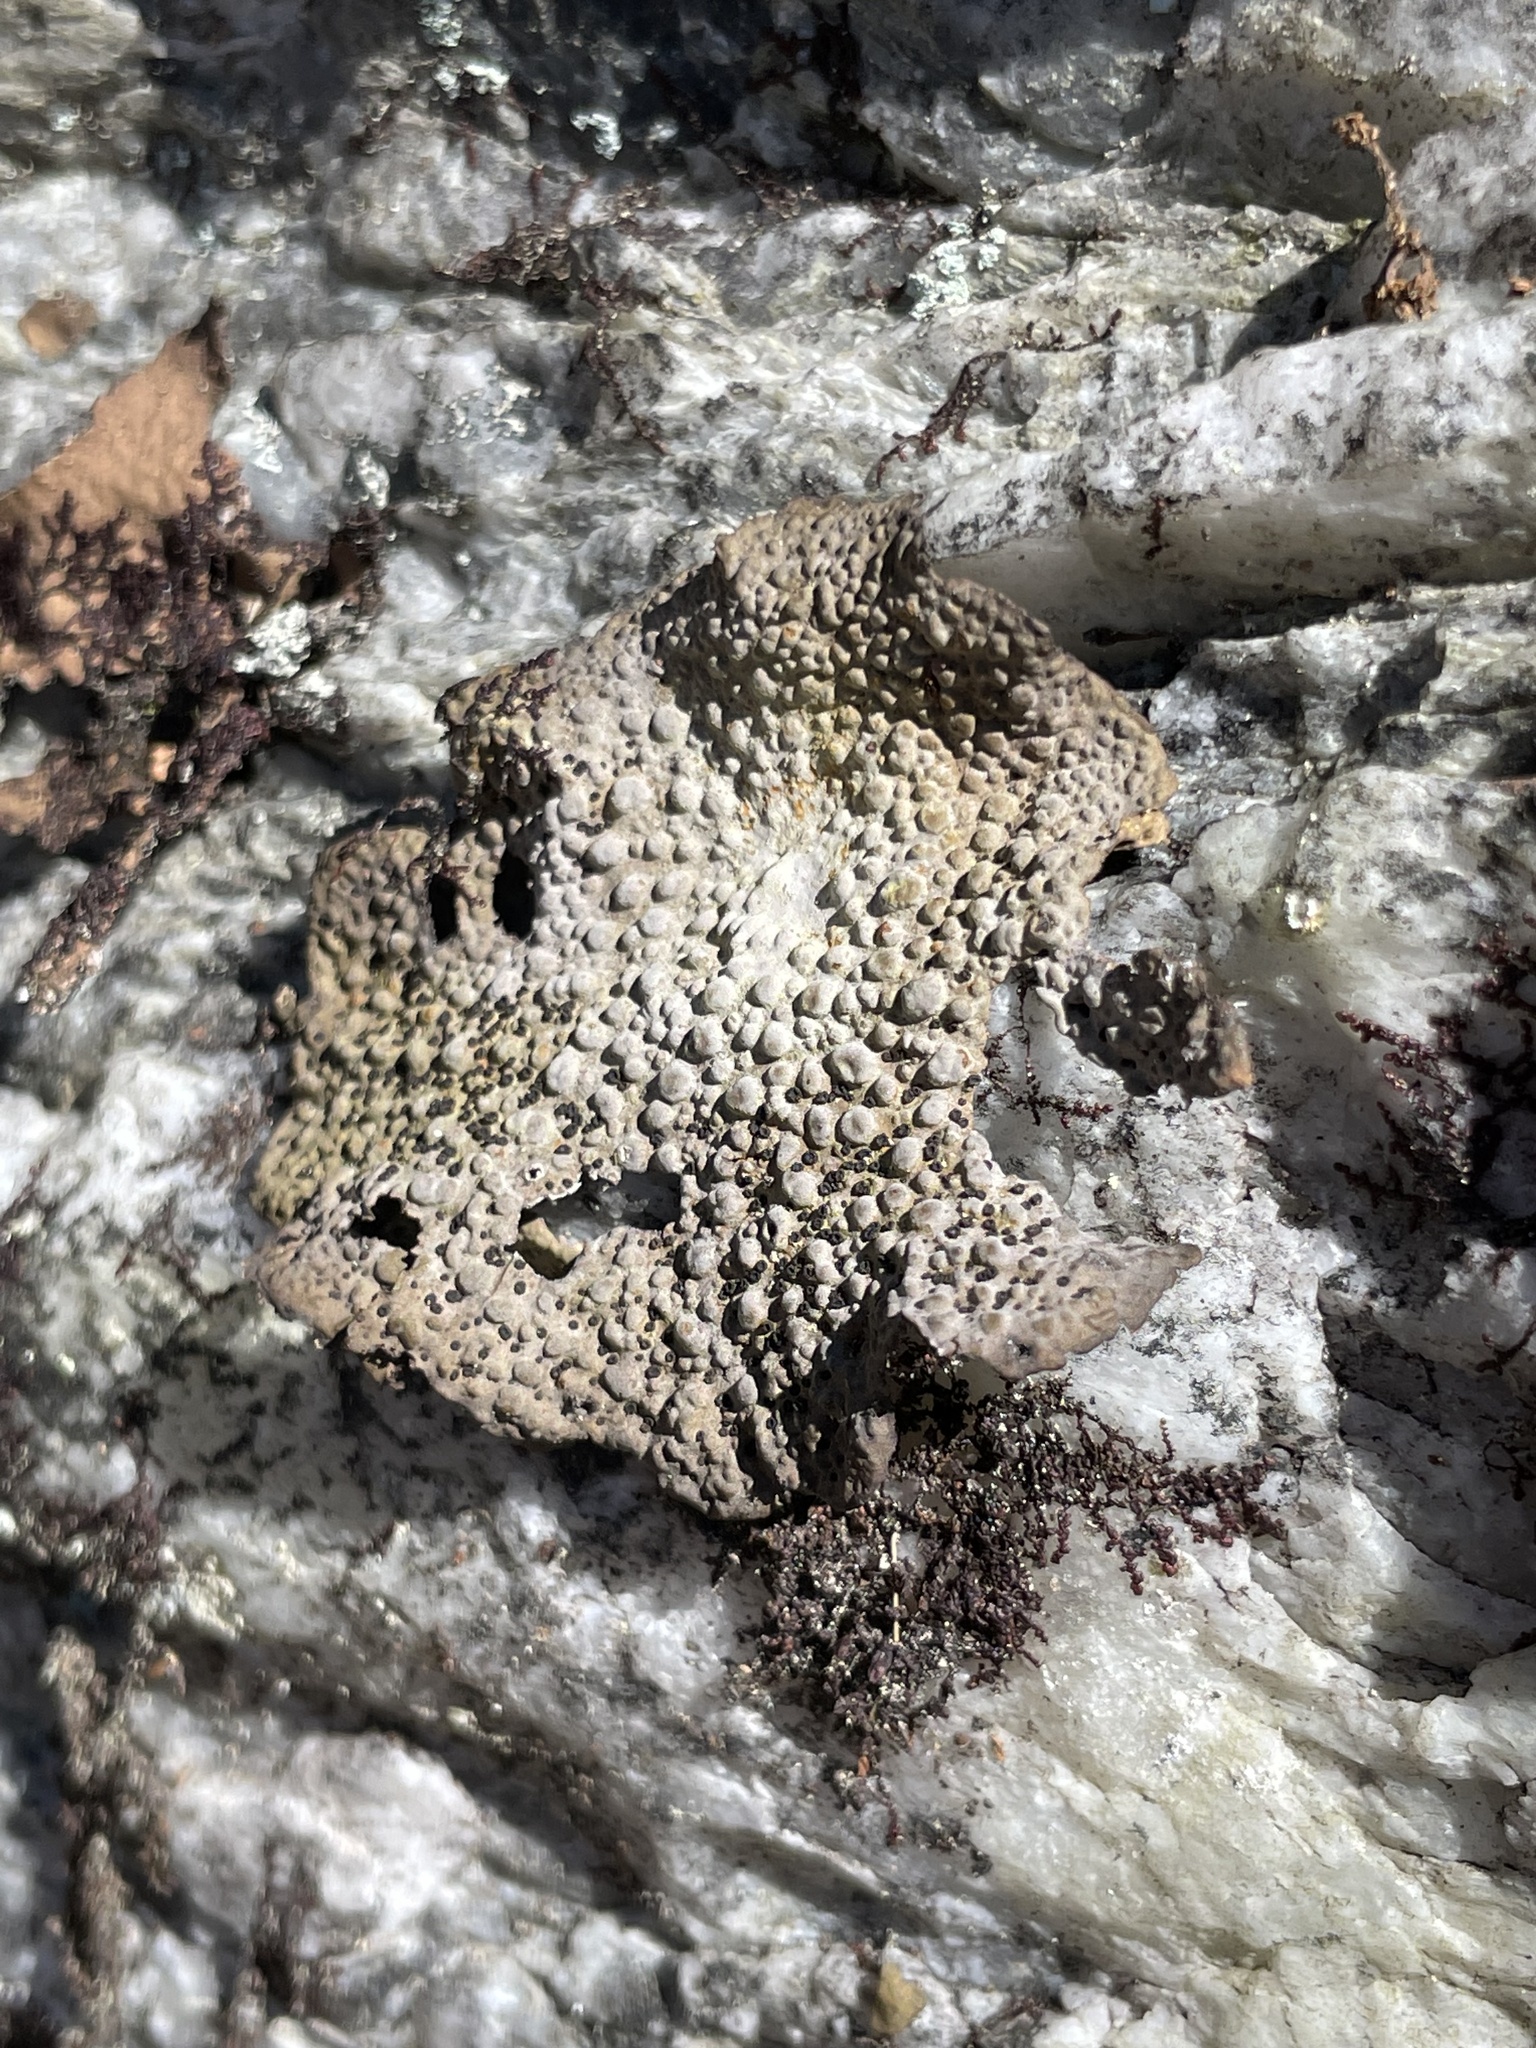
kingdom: Fungi
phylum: Ascomycota
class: Lecanoromycetes
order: Umbilicariales
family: Umbilicariaceae
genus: Lasallia
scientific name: Lasallia papulosa
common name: Common toadskin lichen
